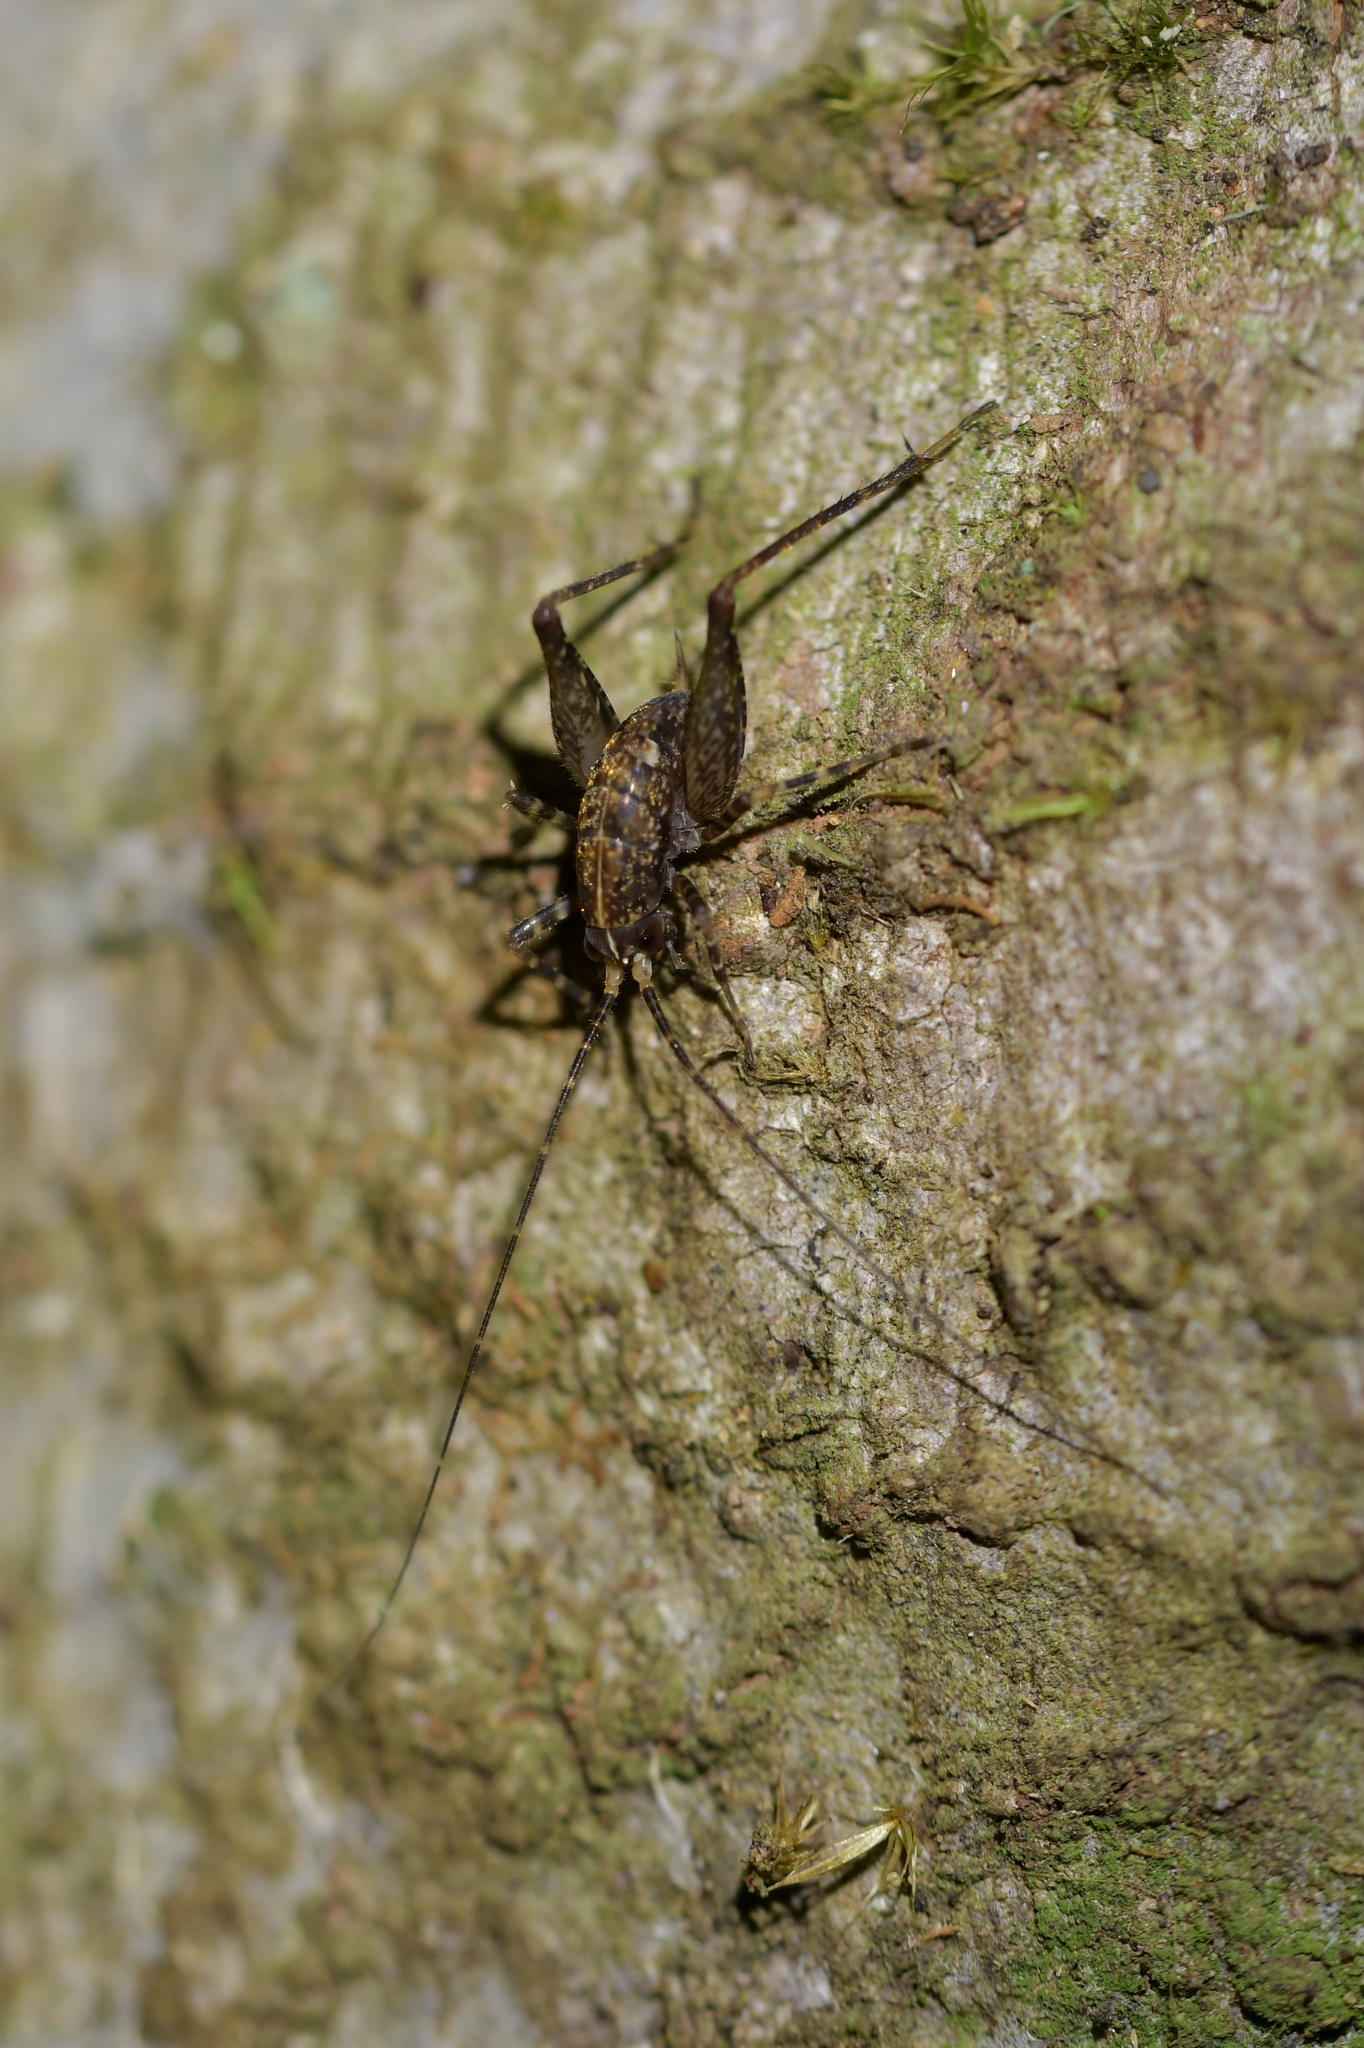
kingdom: Animalia
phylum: Arthropoda
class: Insecta
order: Orthoptera
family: Rhaphidophoridae
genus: Pleioplectron
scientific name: Pleioplectron hudsoni
